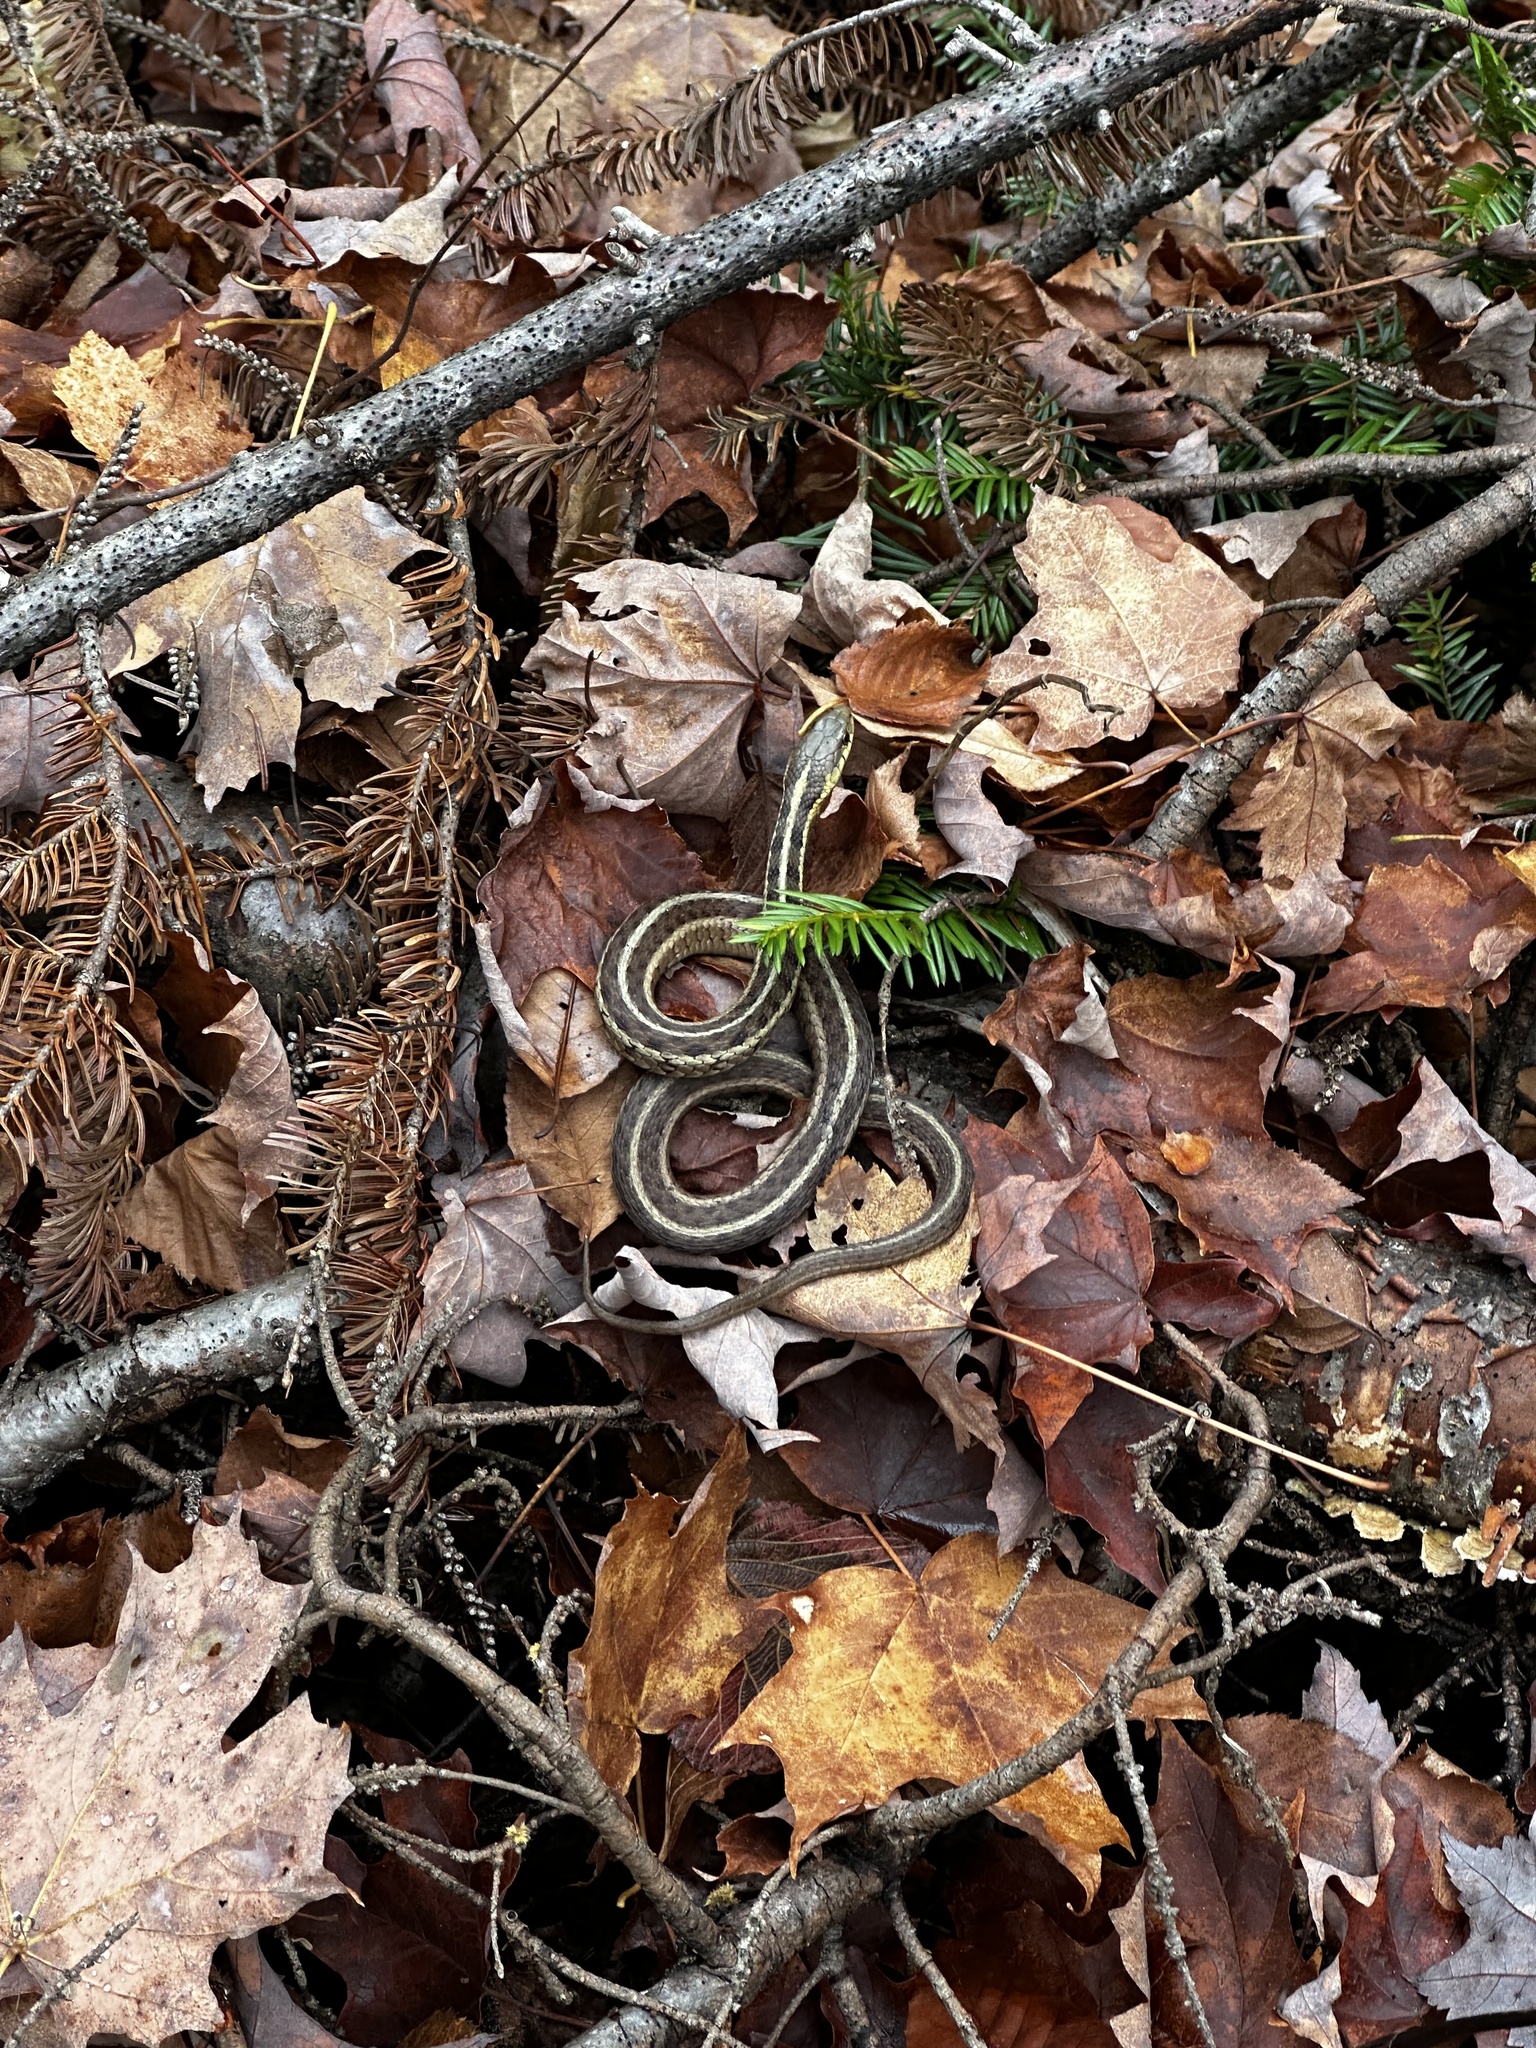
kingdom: Animalia
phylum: Chordata
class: Squamata
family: Colubridae
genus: Thamnophis
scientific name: Thamnophis sirtalis
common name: Common garter snake
